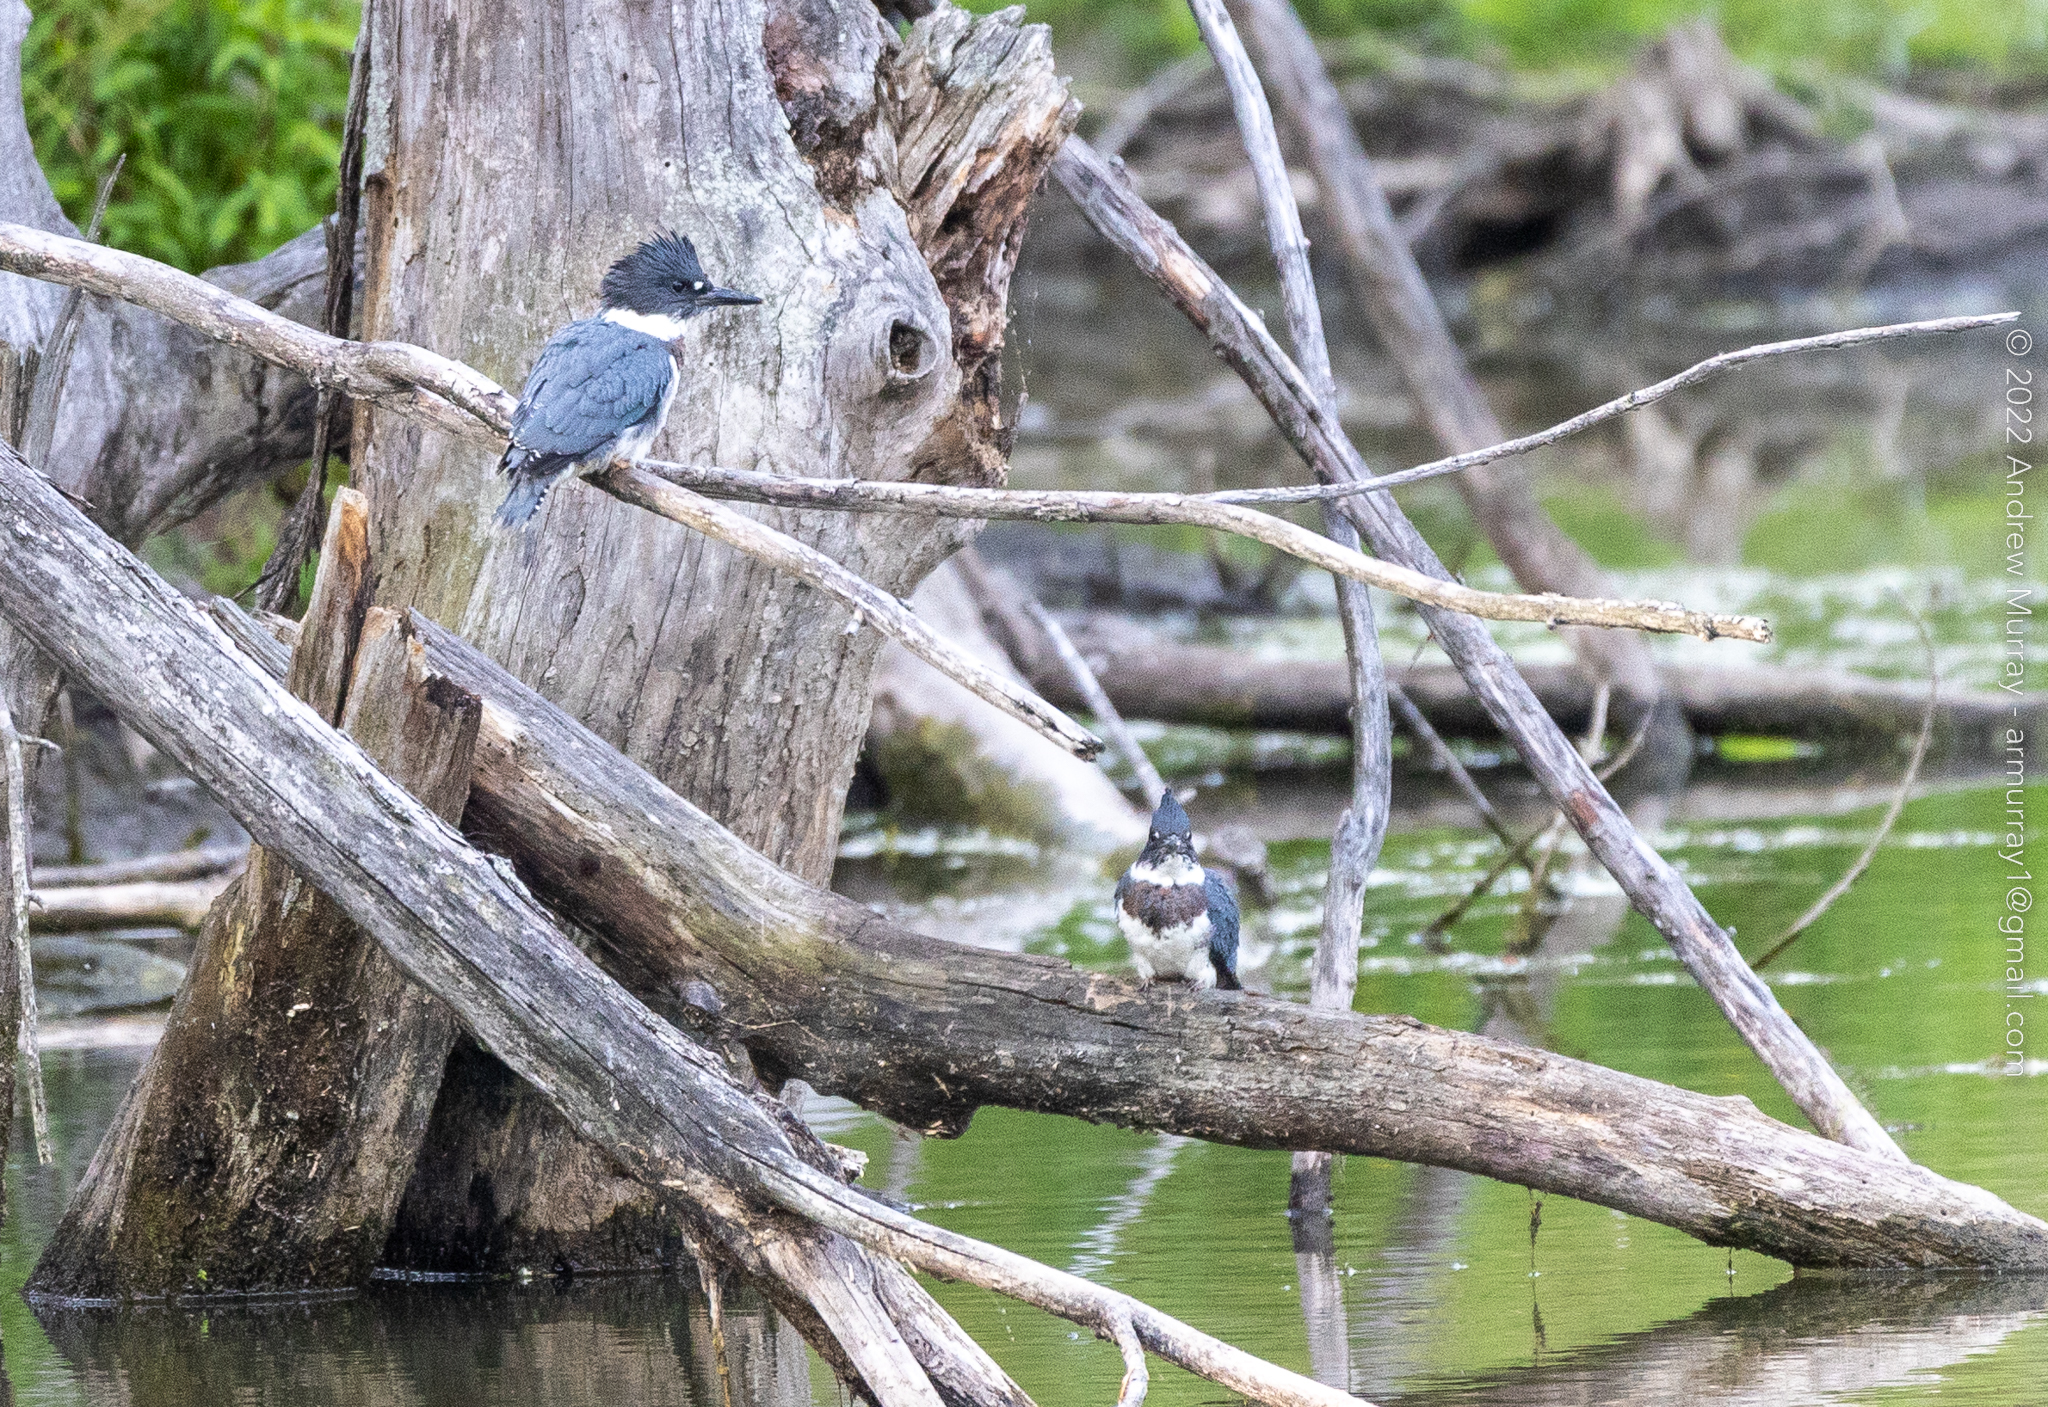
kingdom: Animalia
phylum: Chordata
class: Aves
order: Coraciiformes
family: Alcedinidae
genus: Megaceryle
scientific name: Megaceryle alcyon
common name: Belted kingfisher
